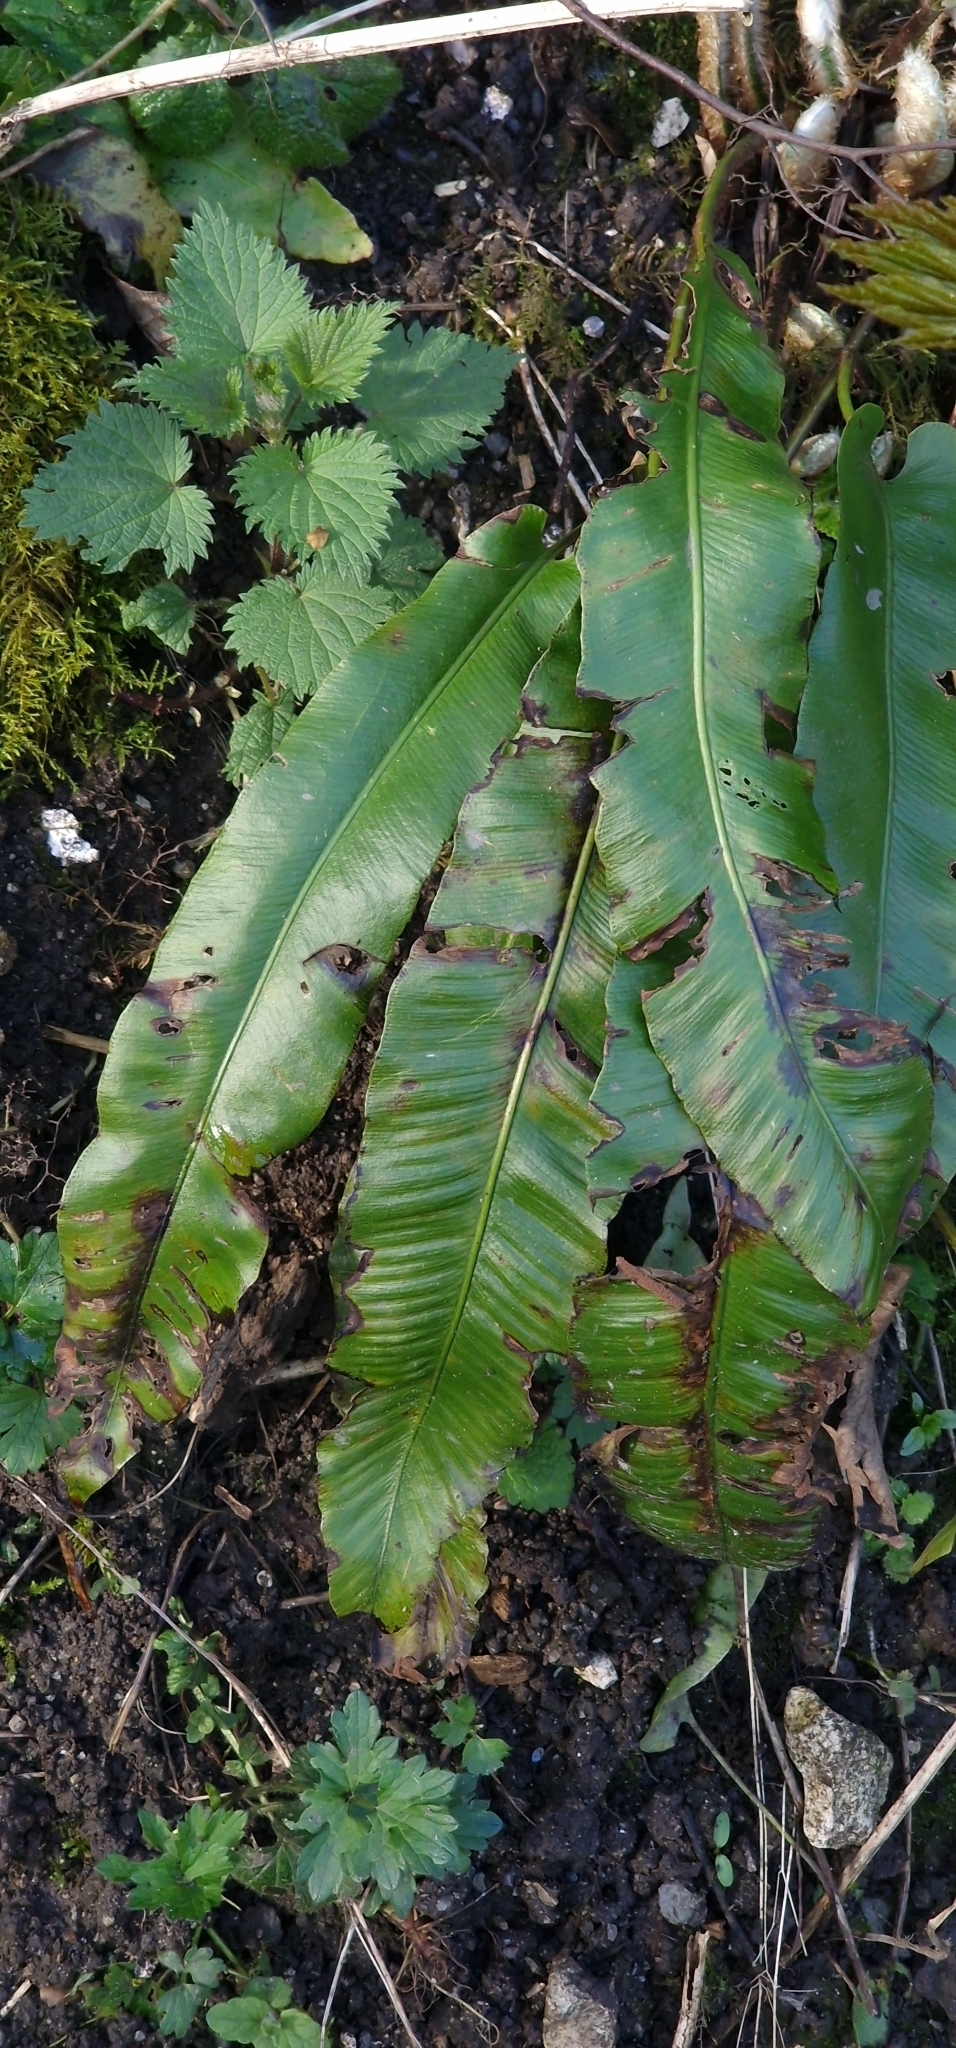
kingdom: Plantae
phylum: Tracheophyta
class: Polypodiopsida
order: Polypodiales
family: Aspleniaceae
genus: Asplenium
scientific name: Asplenium scolopendrium
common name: Hart's-tongue fern
